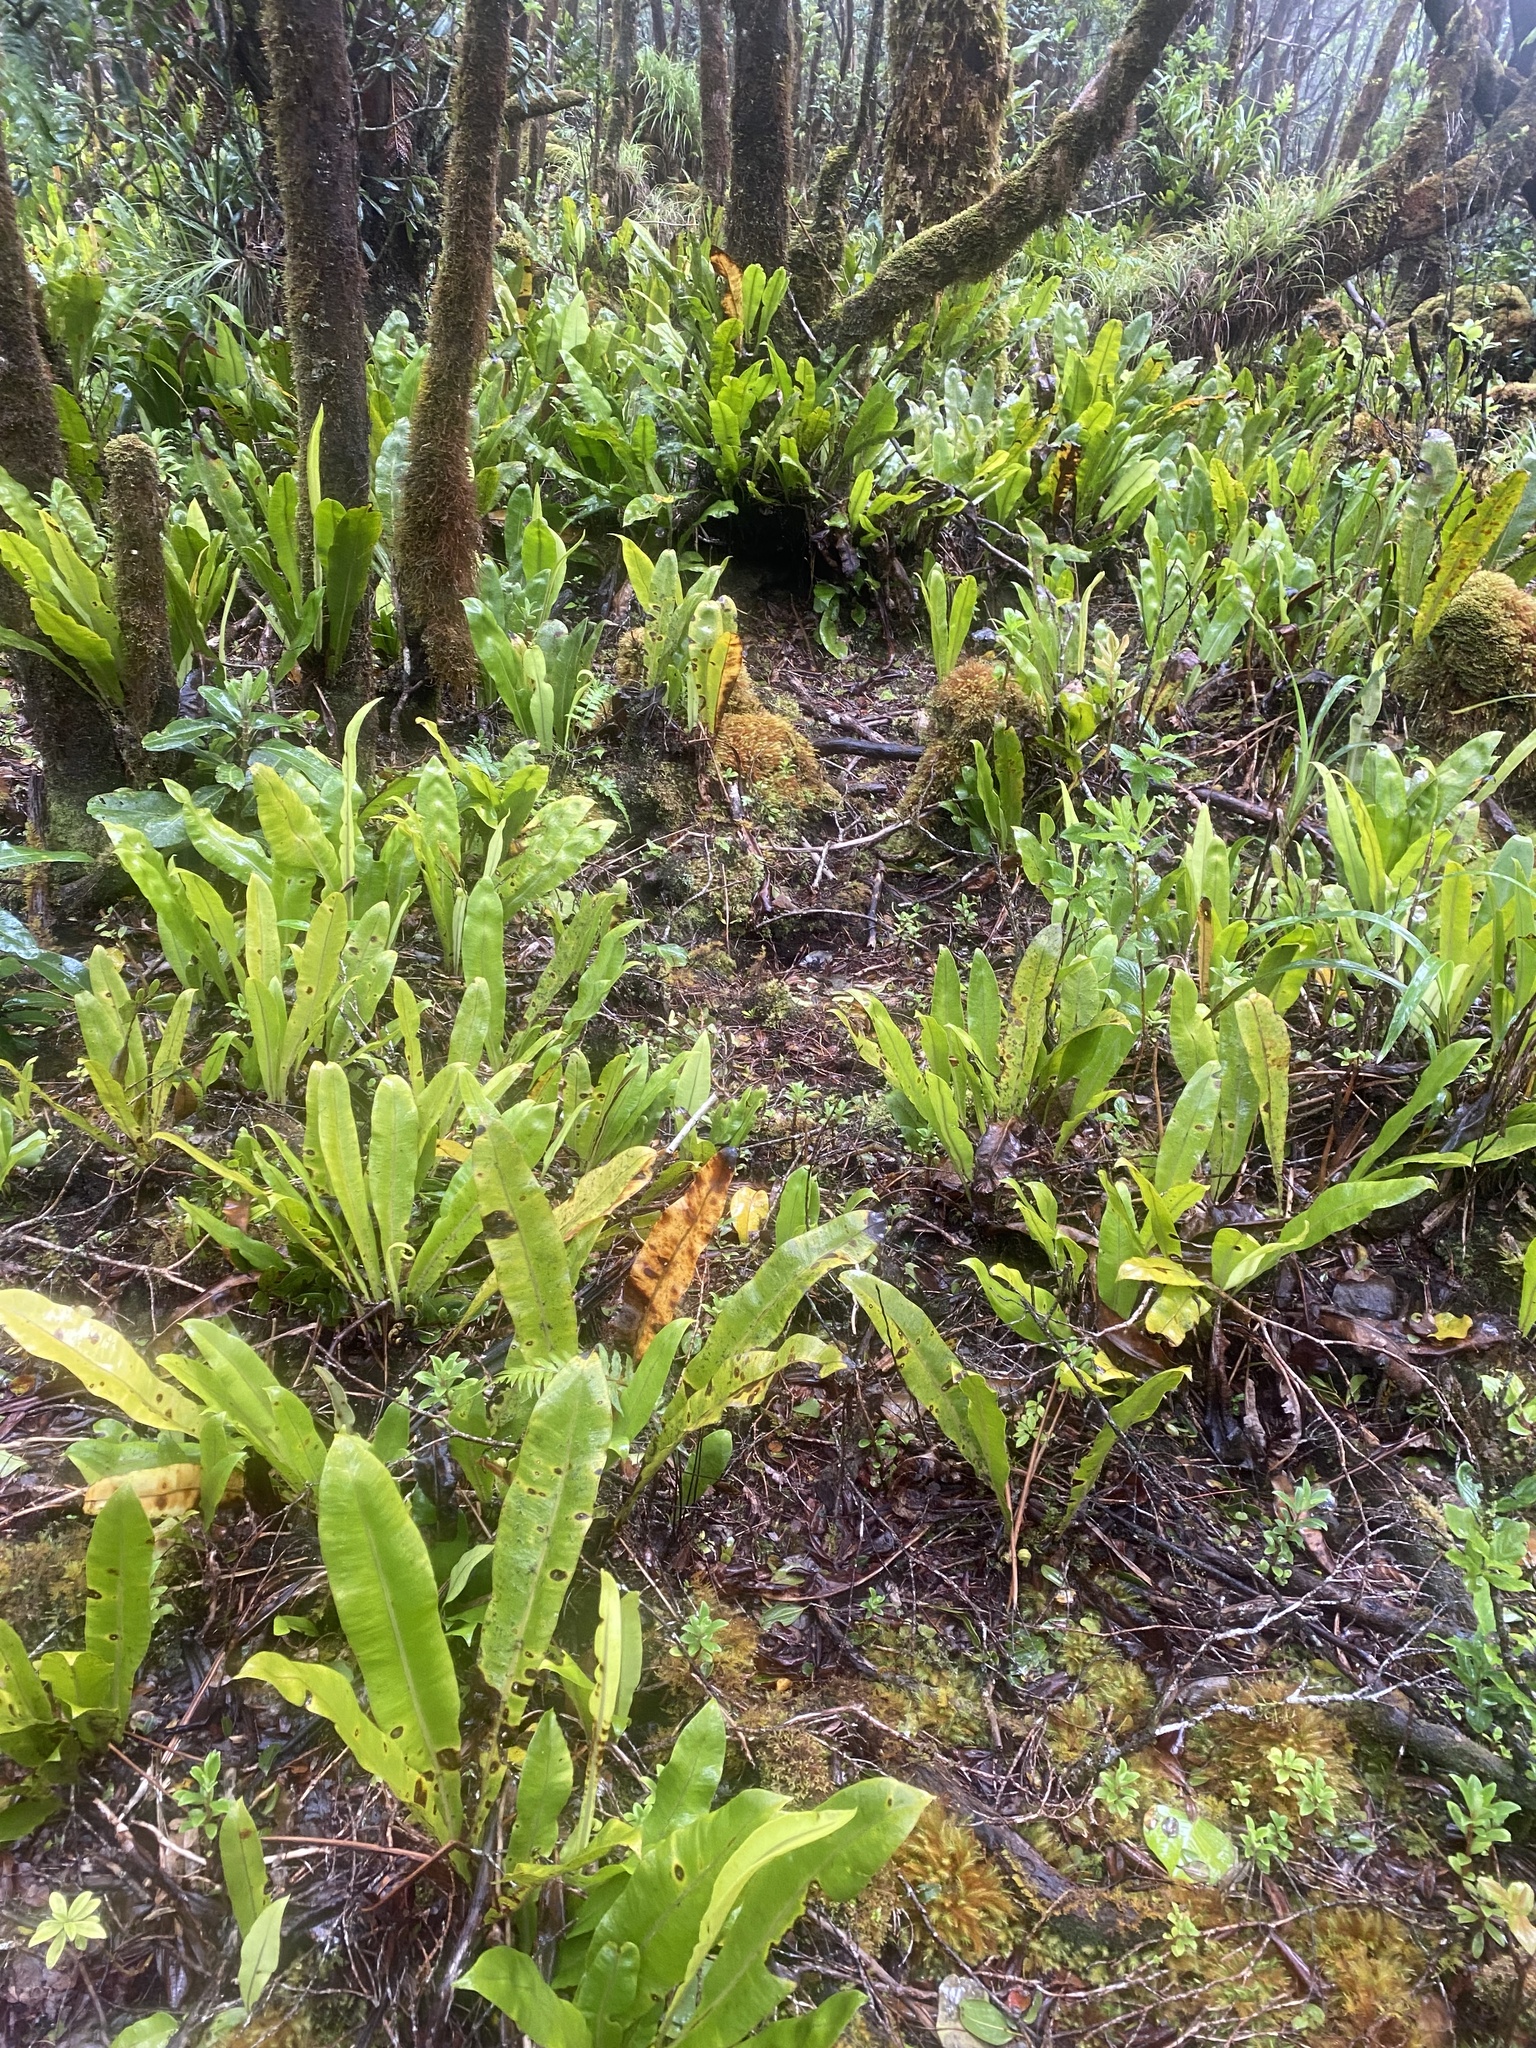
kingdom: Plantae
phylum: Tracheophyta
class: Polypodiopsida
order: Polypodiales
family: Dryopteridaceae
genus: Elaphoglossum
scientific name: Elaphoglossum crassicaule
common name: Maui's paddle
